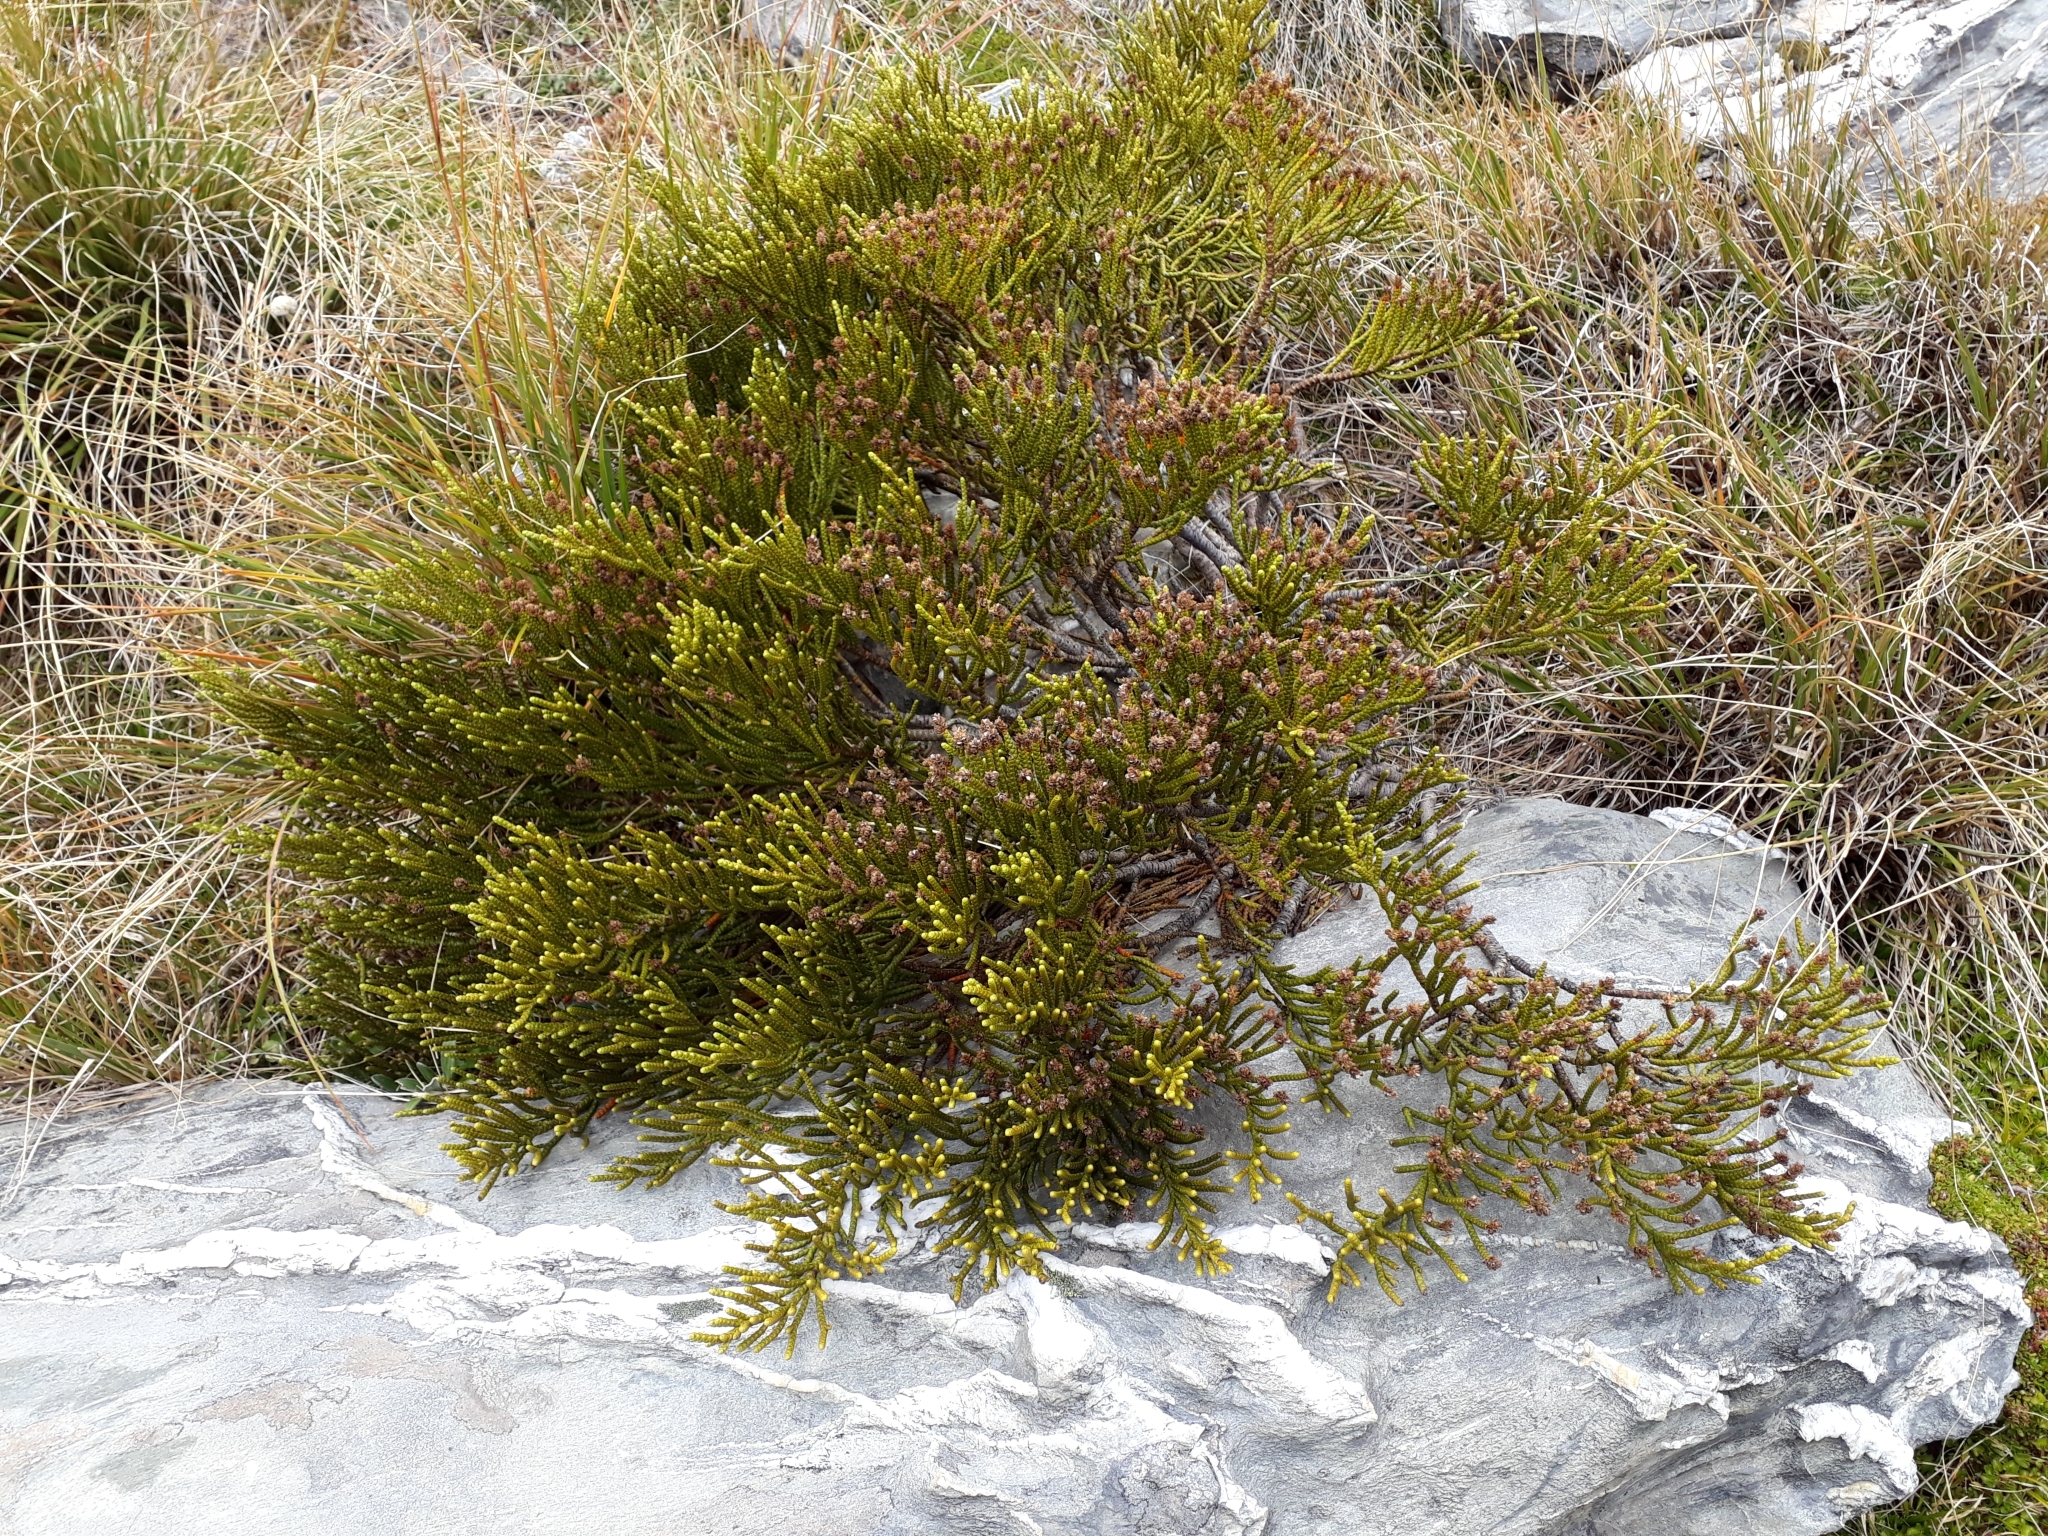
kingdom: Plantae
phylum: Tracheophyta
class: Magnoliopsida
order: Lamiales
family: Plantaginaceae
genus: Veronica
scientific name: Veronica hectorii
